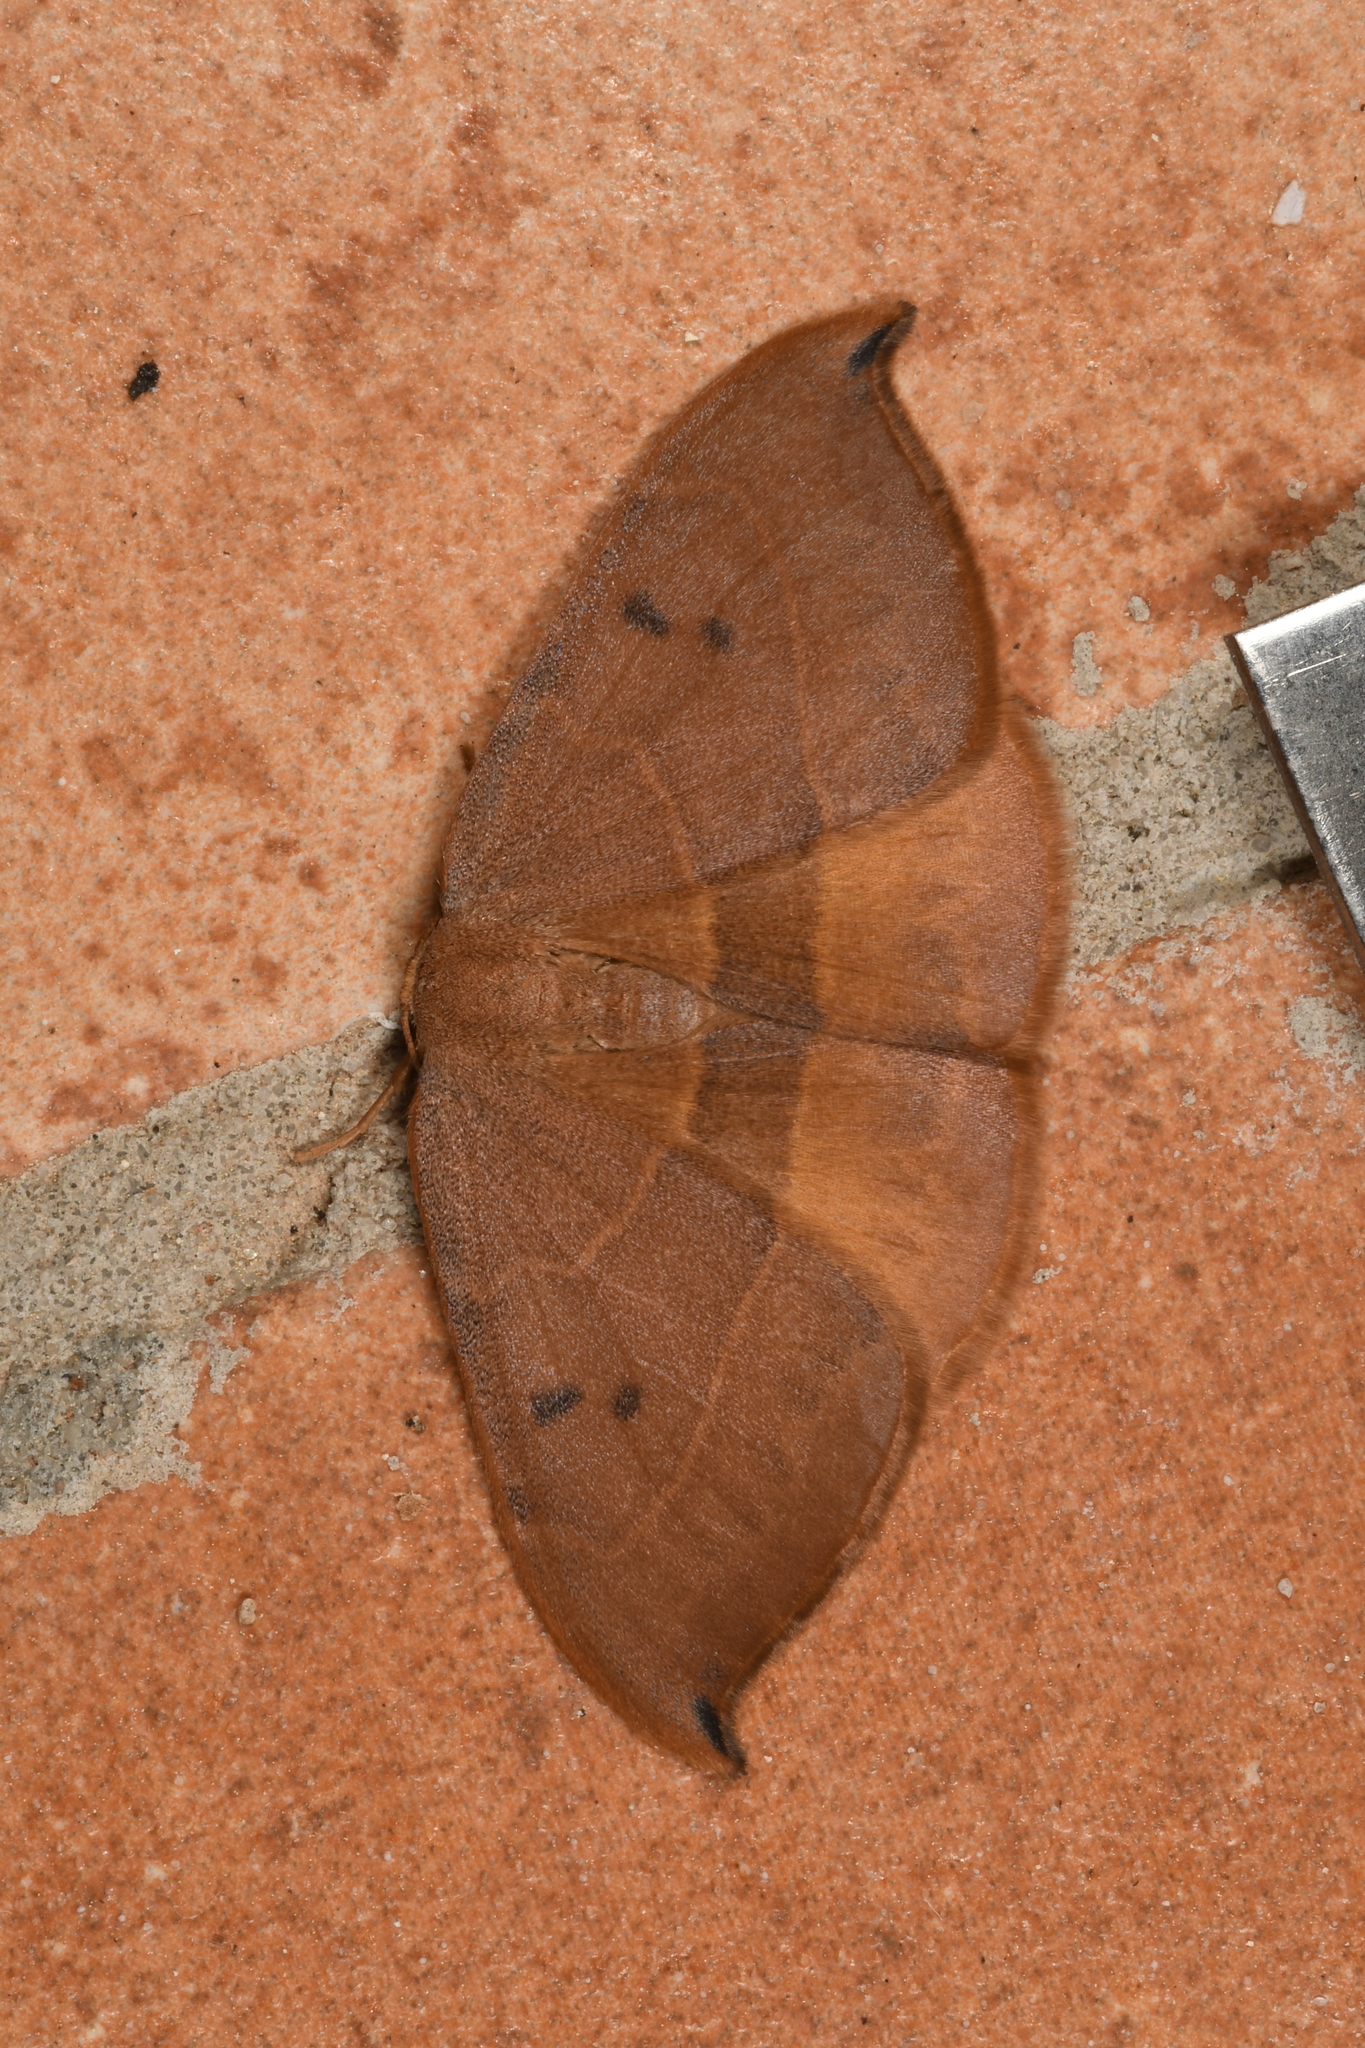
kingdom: Animalia
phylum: Arthropoda
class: Insecta
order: Lepidoptera
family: Drepanidae
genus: Watsonalla
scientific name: Watsonalla uncinula
